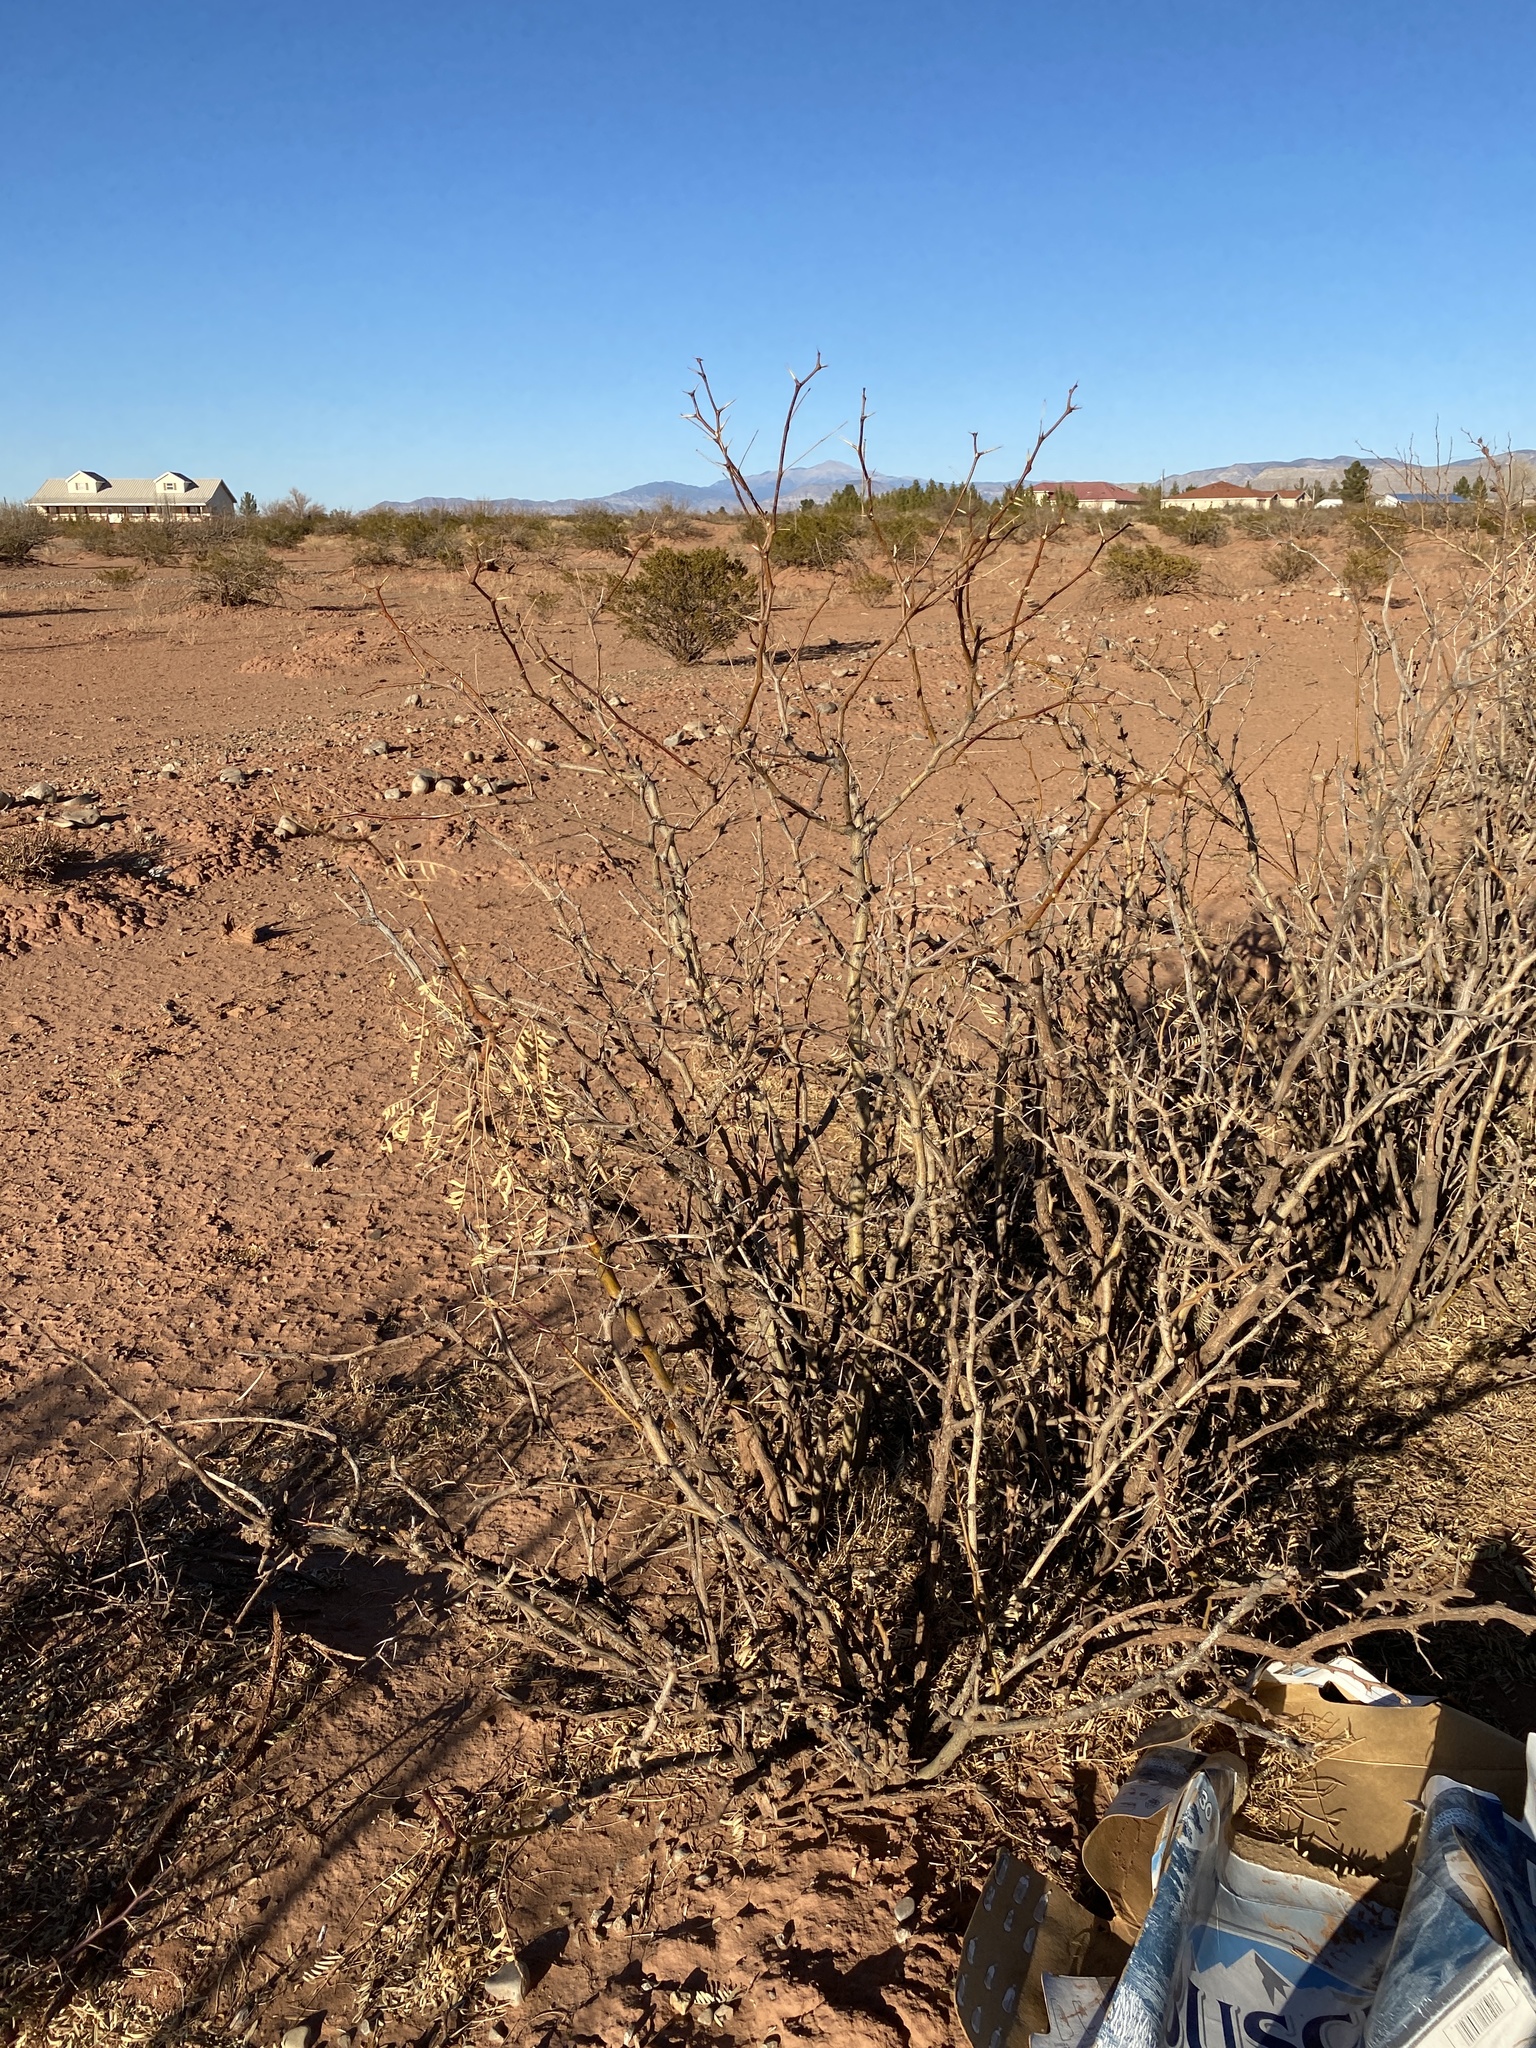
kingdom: Plantae
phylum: Tracheophyta
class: Magnoliopsida
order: Fabales
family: Fabaceae
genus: Prosopis
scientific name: Prosopis glandulosa
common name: Honey mesquite
